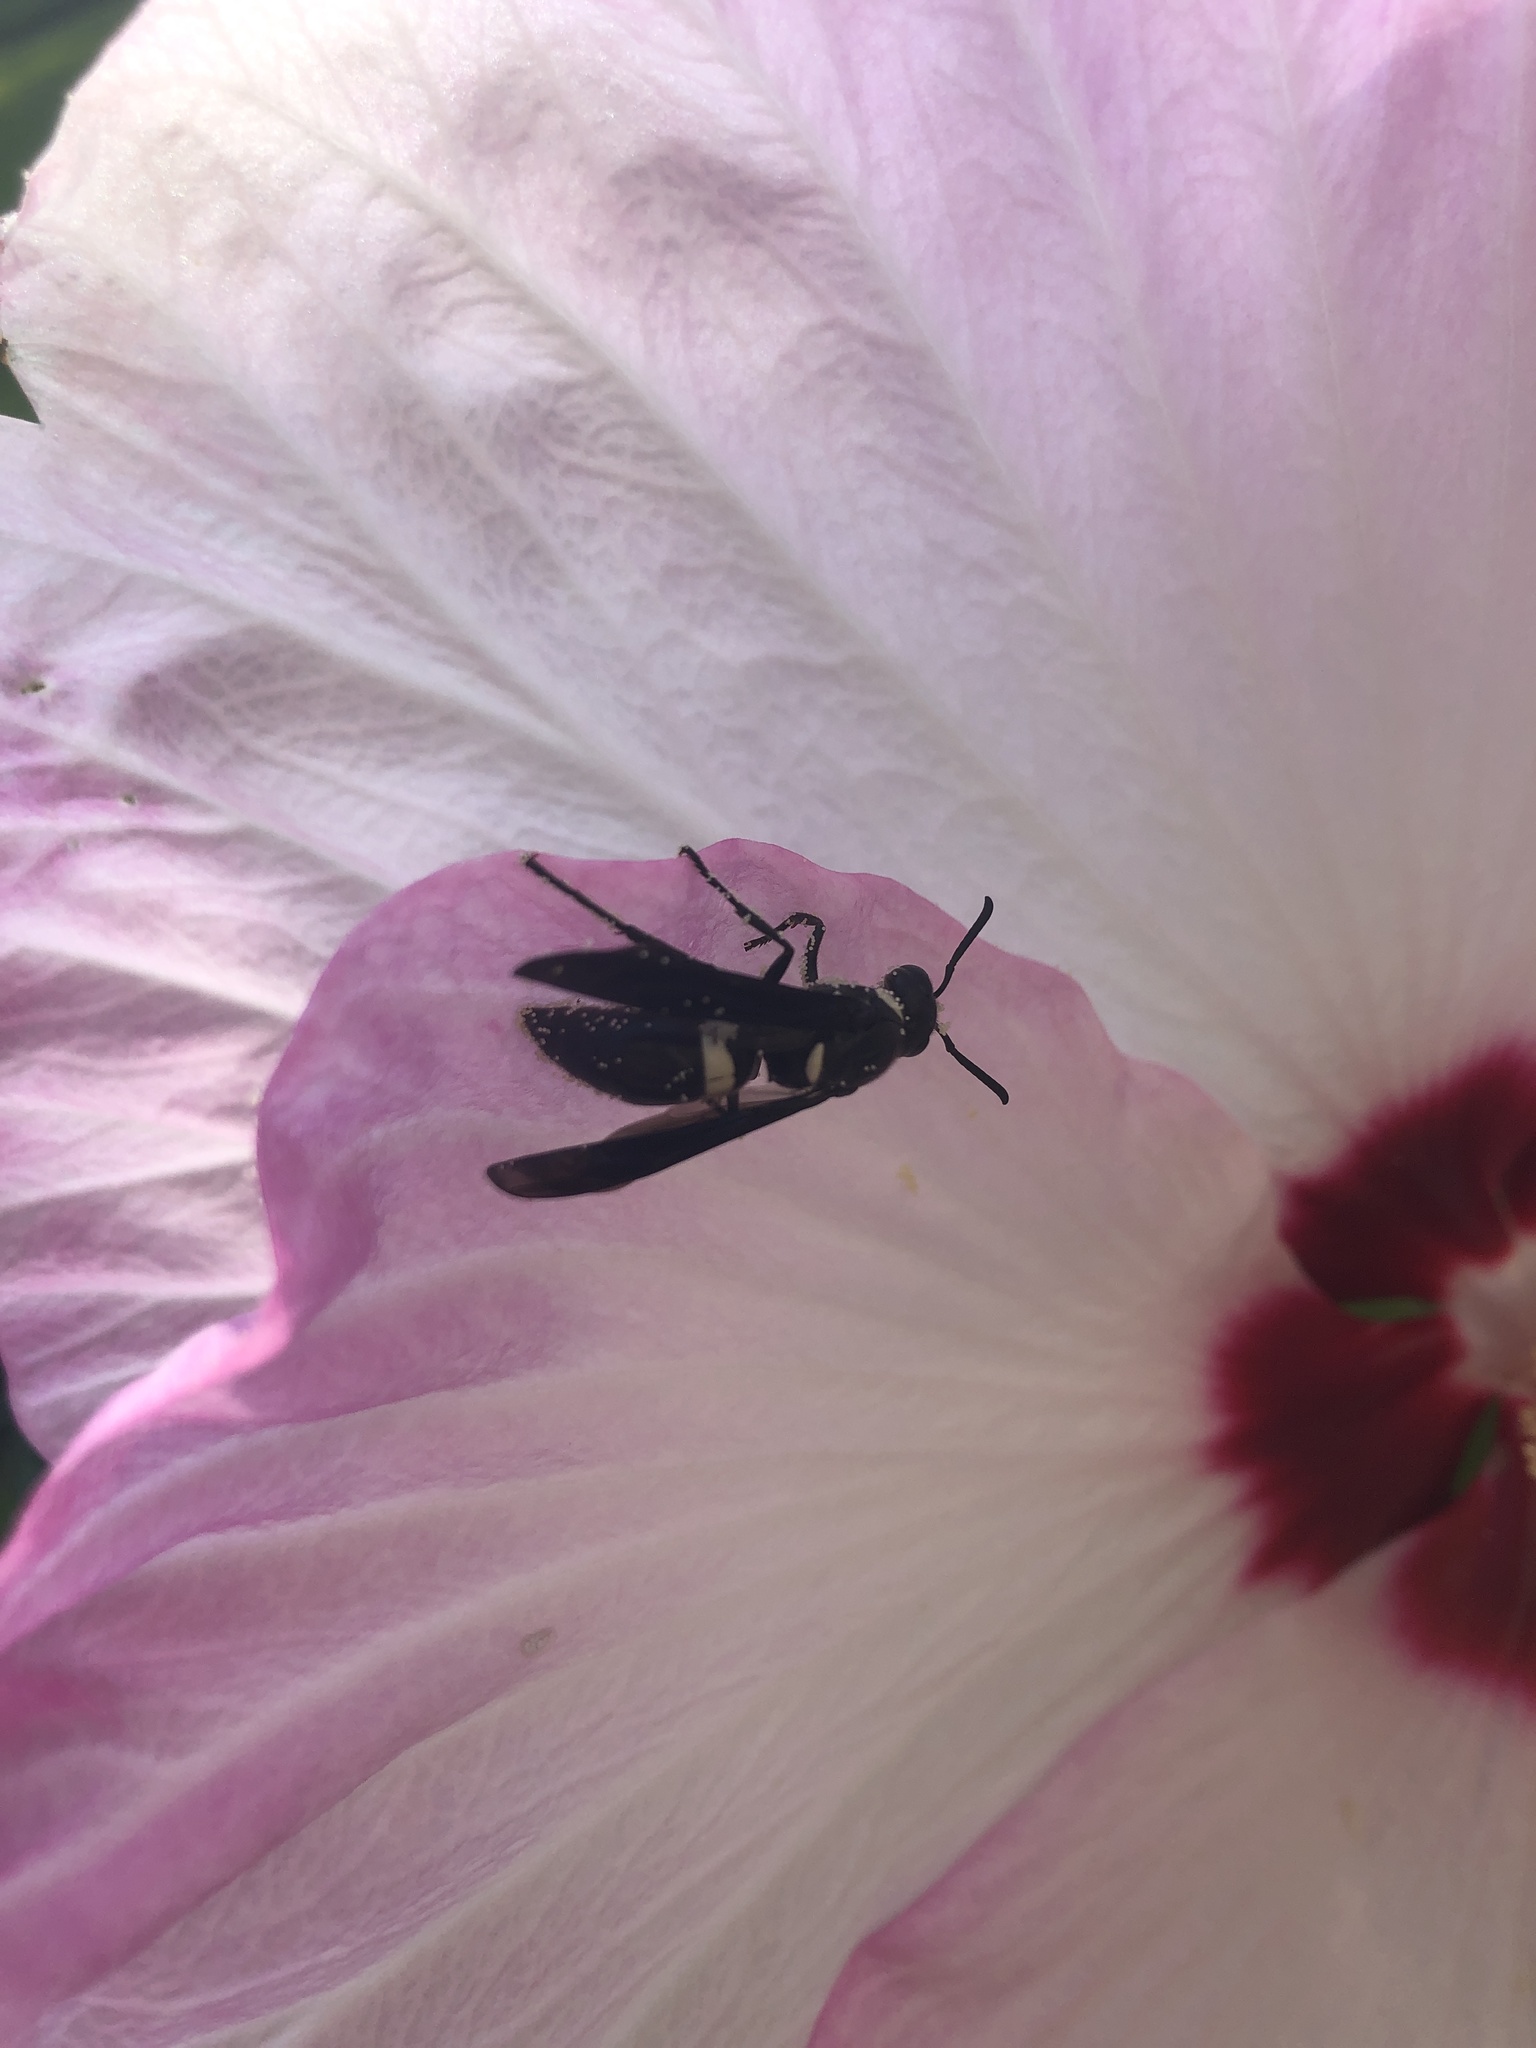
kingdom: Animalia
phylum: Arthropoda
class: Insecta
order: Hymenoptera
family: Eumenidae
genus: Monobia
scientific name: Monobia quadridens
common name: Four-toothed mason wasp
